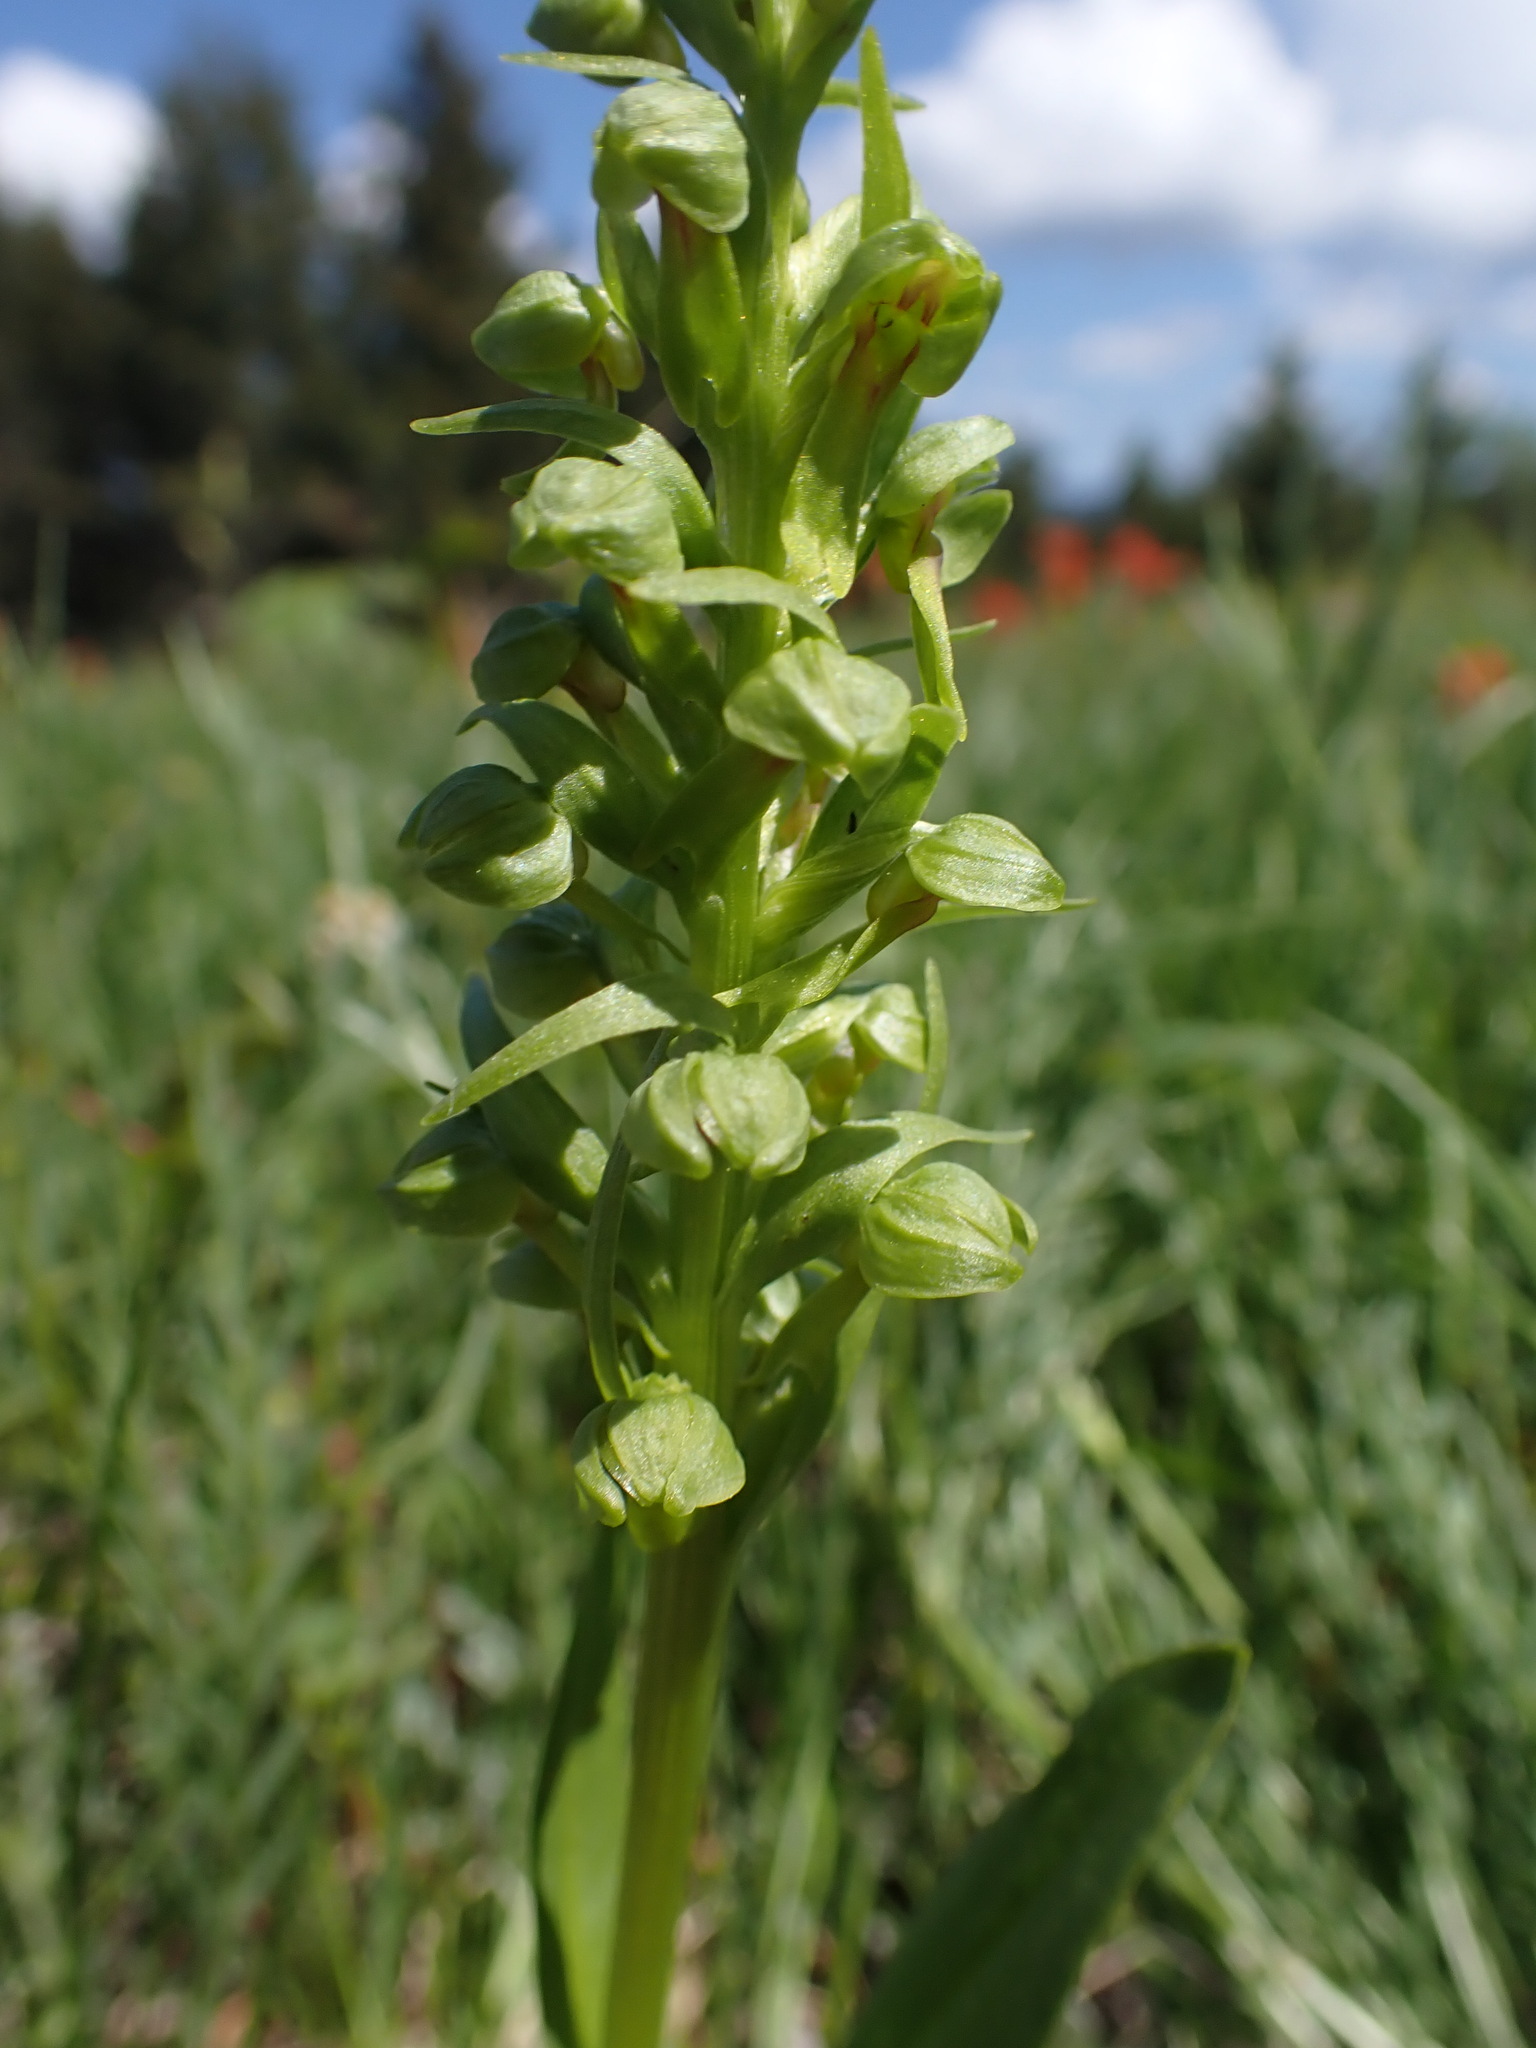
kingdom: Plantae
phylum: Tracheophyta
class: Liliopsida
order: Asparagales
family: Orchidaceae
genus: Dactylorhiza
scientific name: Dactylorhiza viridis
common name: Longbract frog orchid
